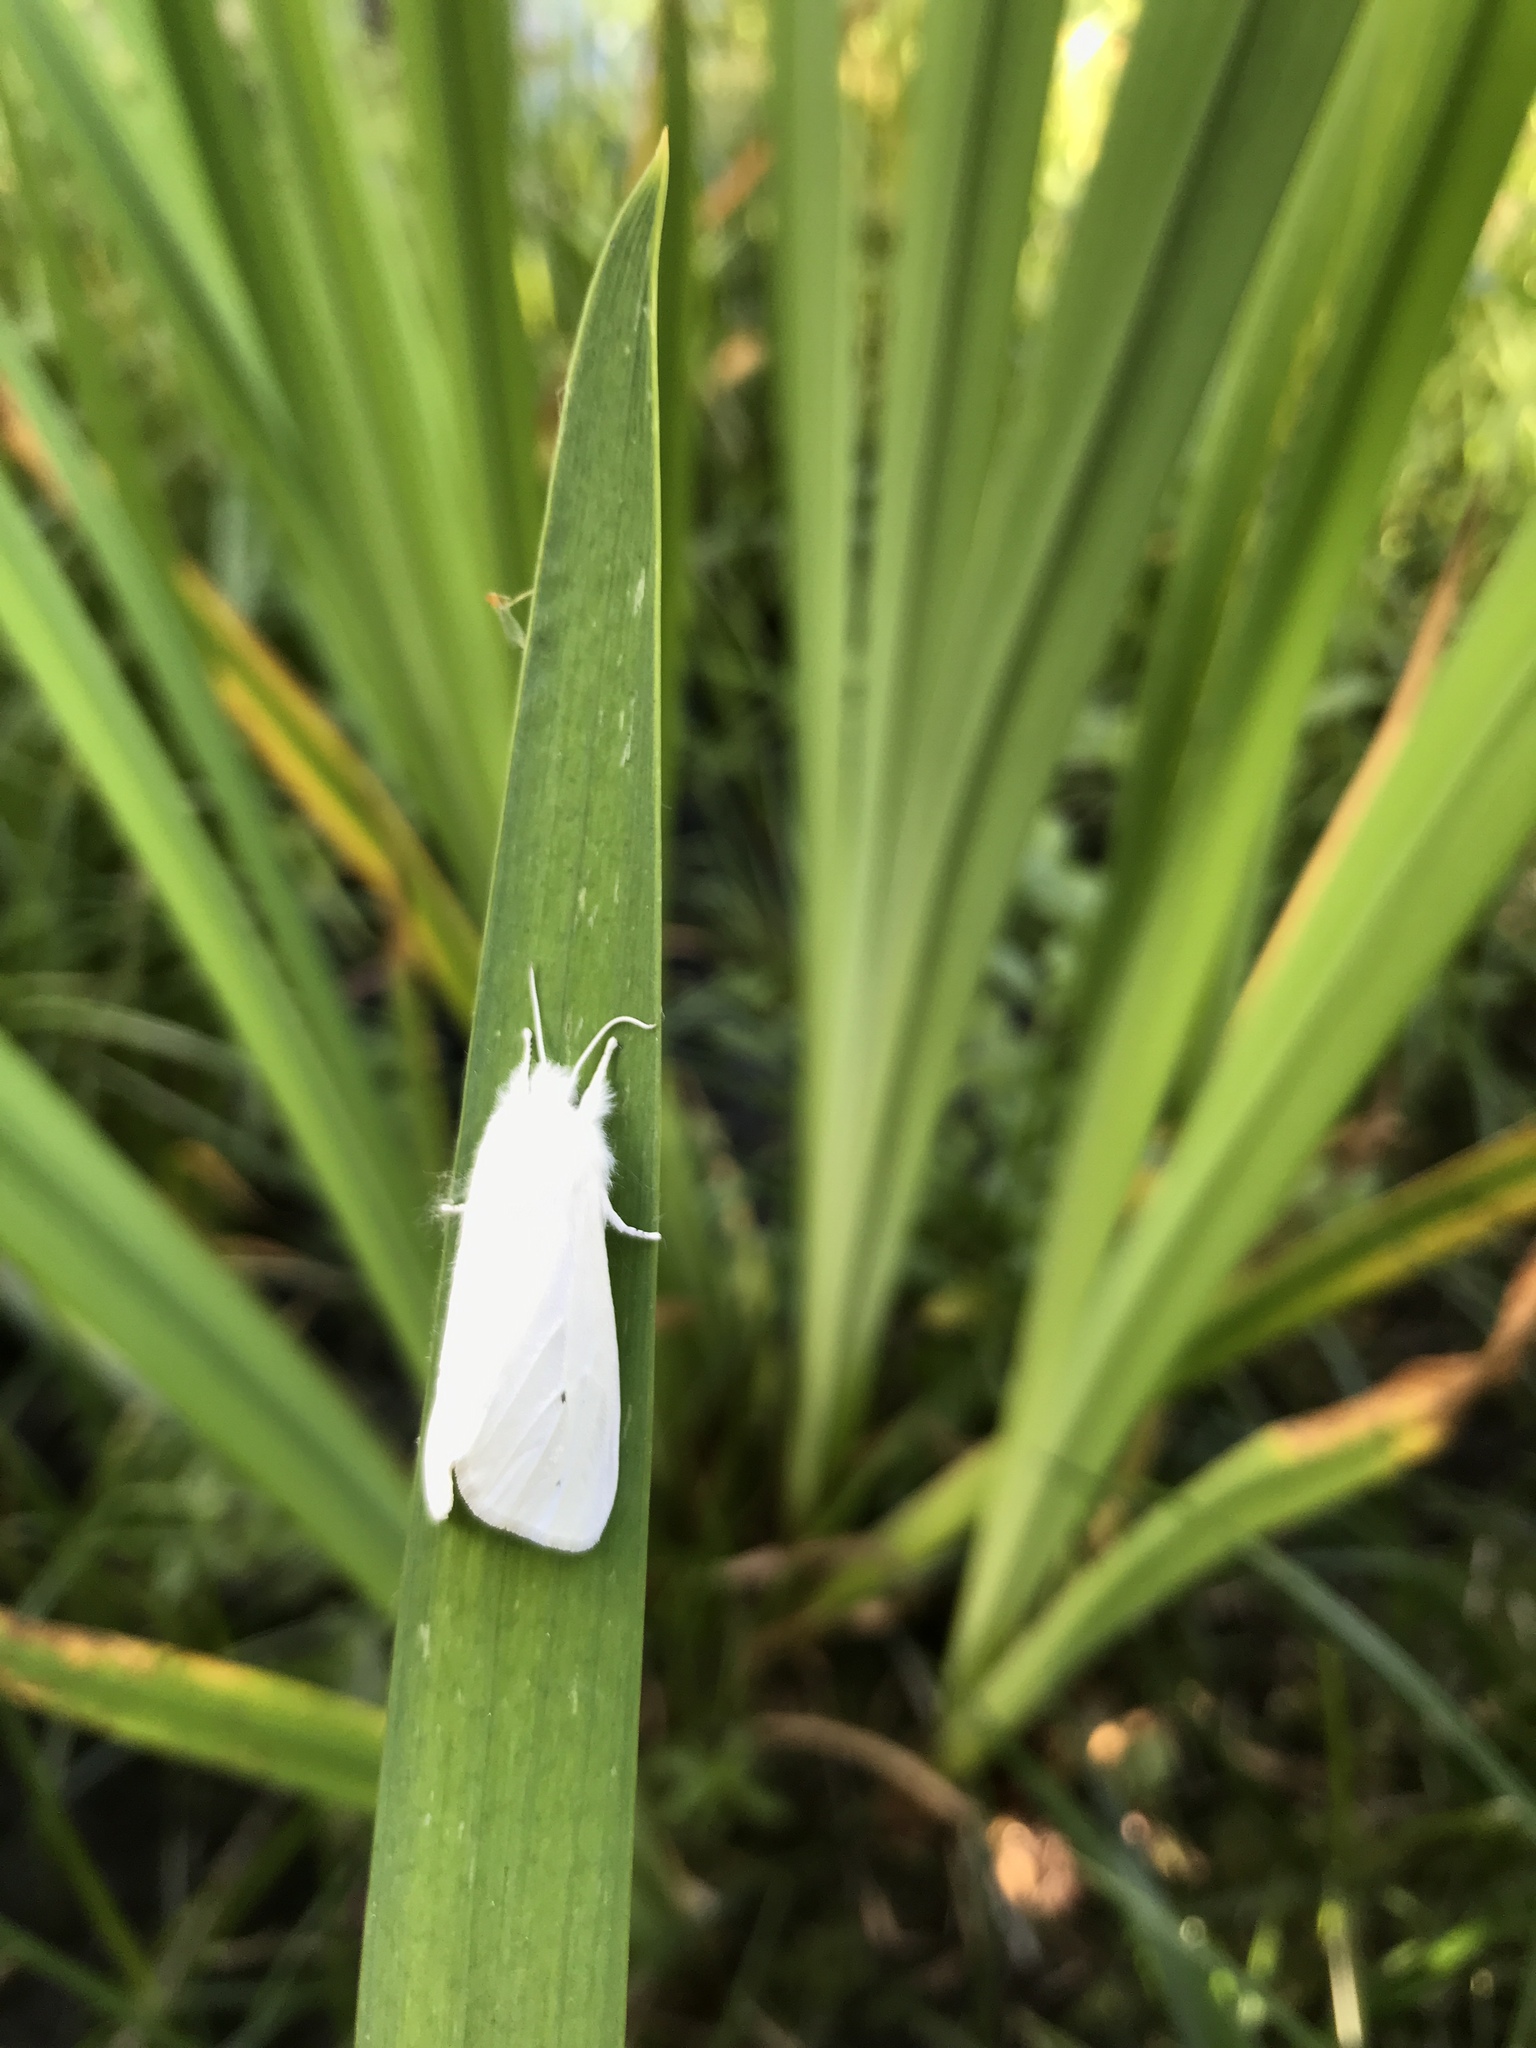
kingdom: Animalia
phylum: Arthropoda
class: Insecta
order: Lepidoptera
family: Erebidae
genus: Spilosoma
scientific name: Spilosoma virginica
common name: Virginia tiger moth
